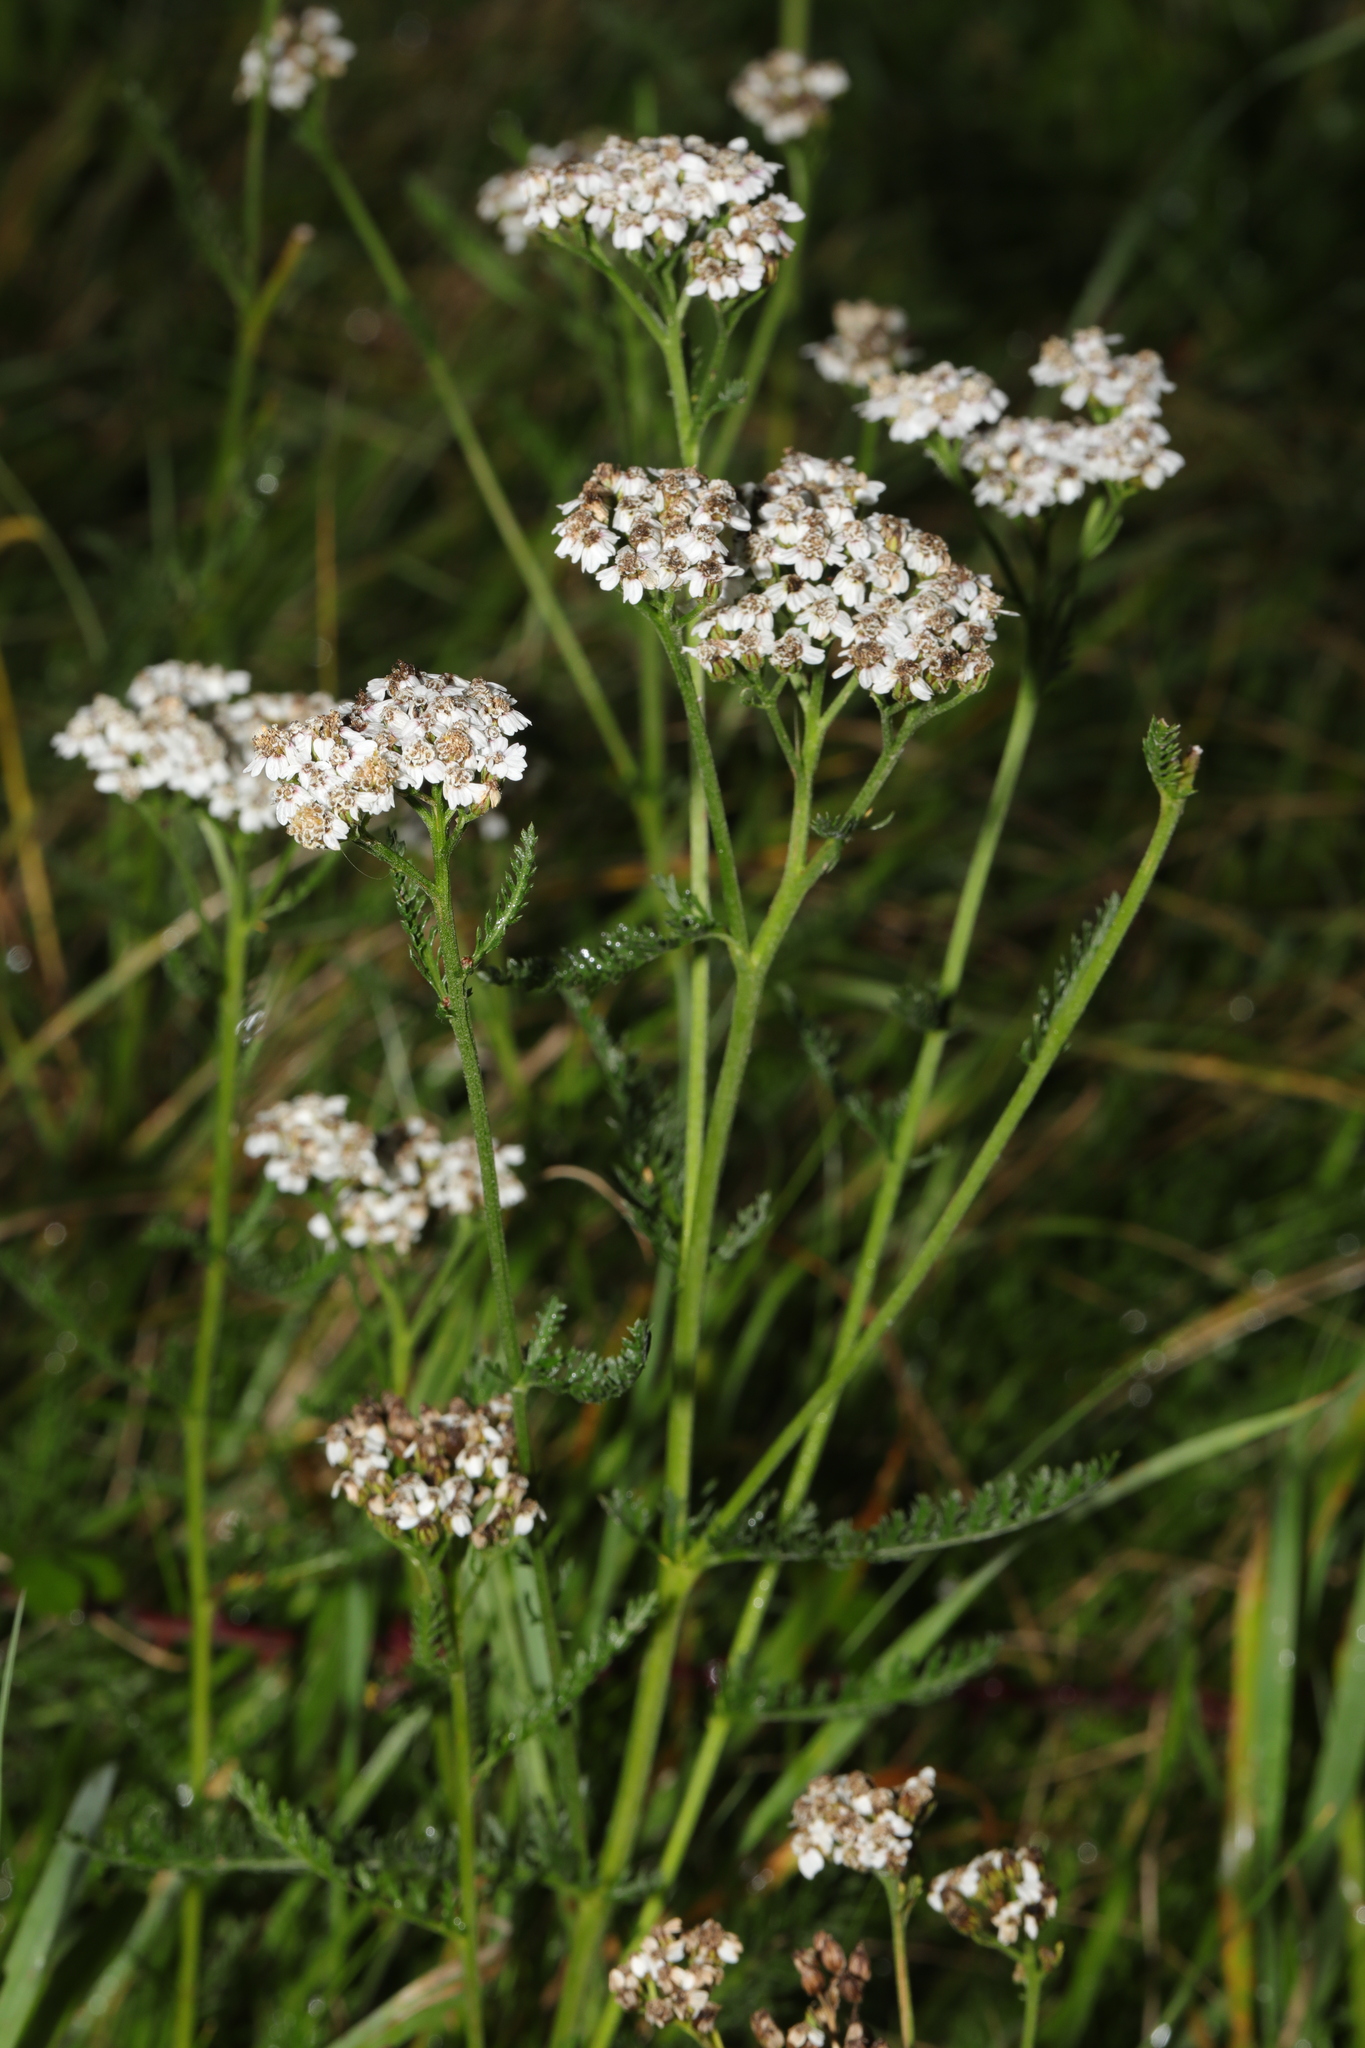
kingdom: Plantae
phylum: Tracheophyta
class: Magnoliopsida
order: Asterales
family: Asteraceae
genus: Achillea
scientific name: Achillea millefolium
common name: Yarrow
